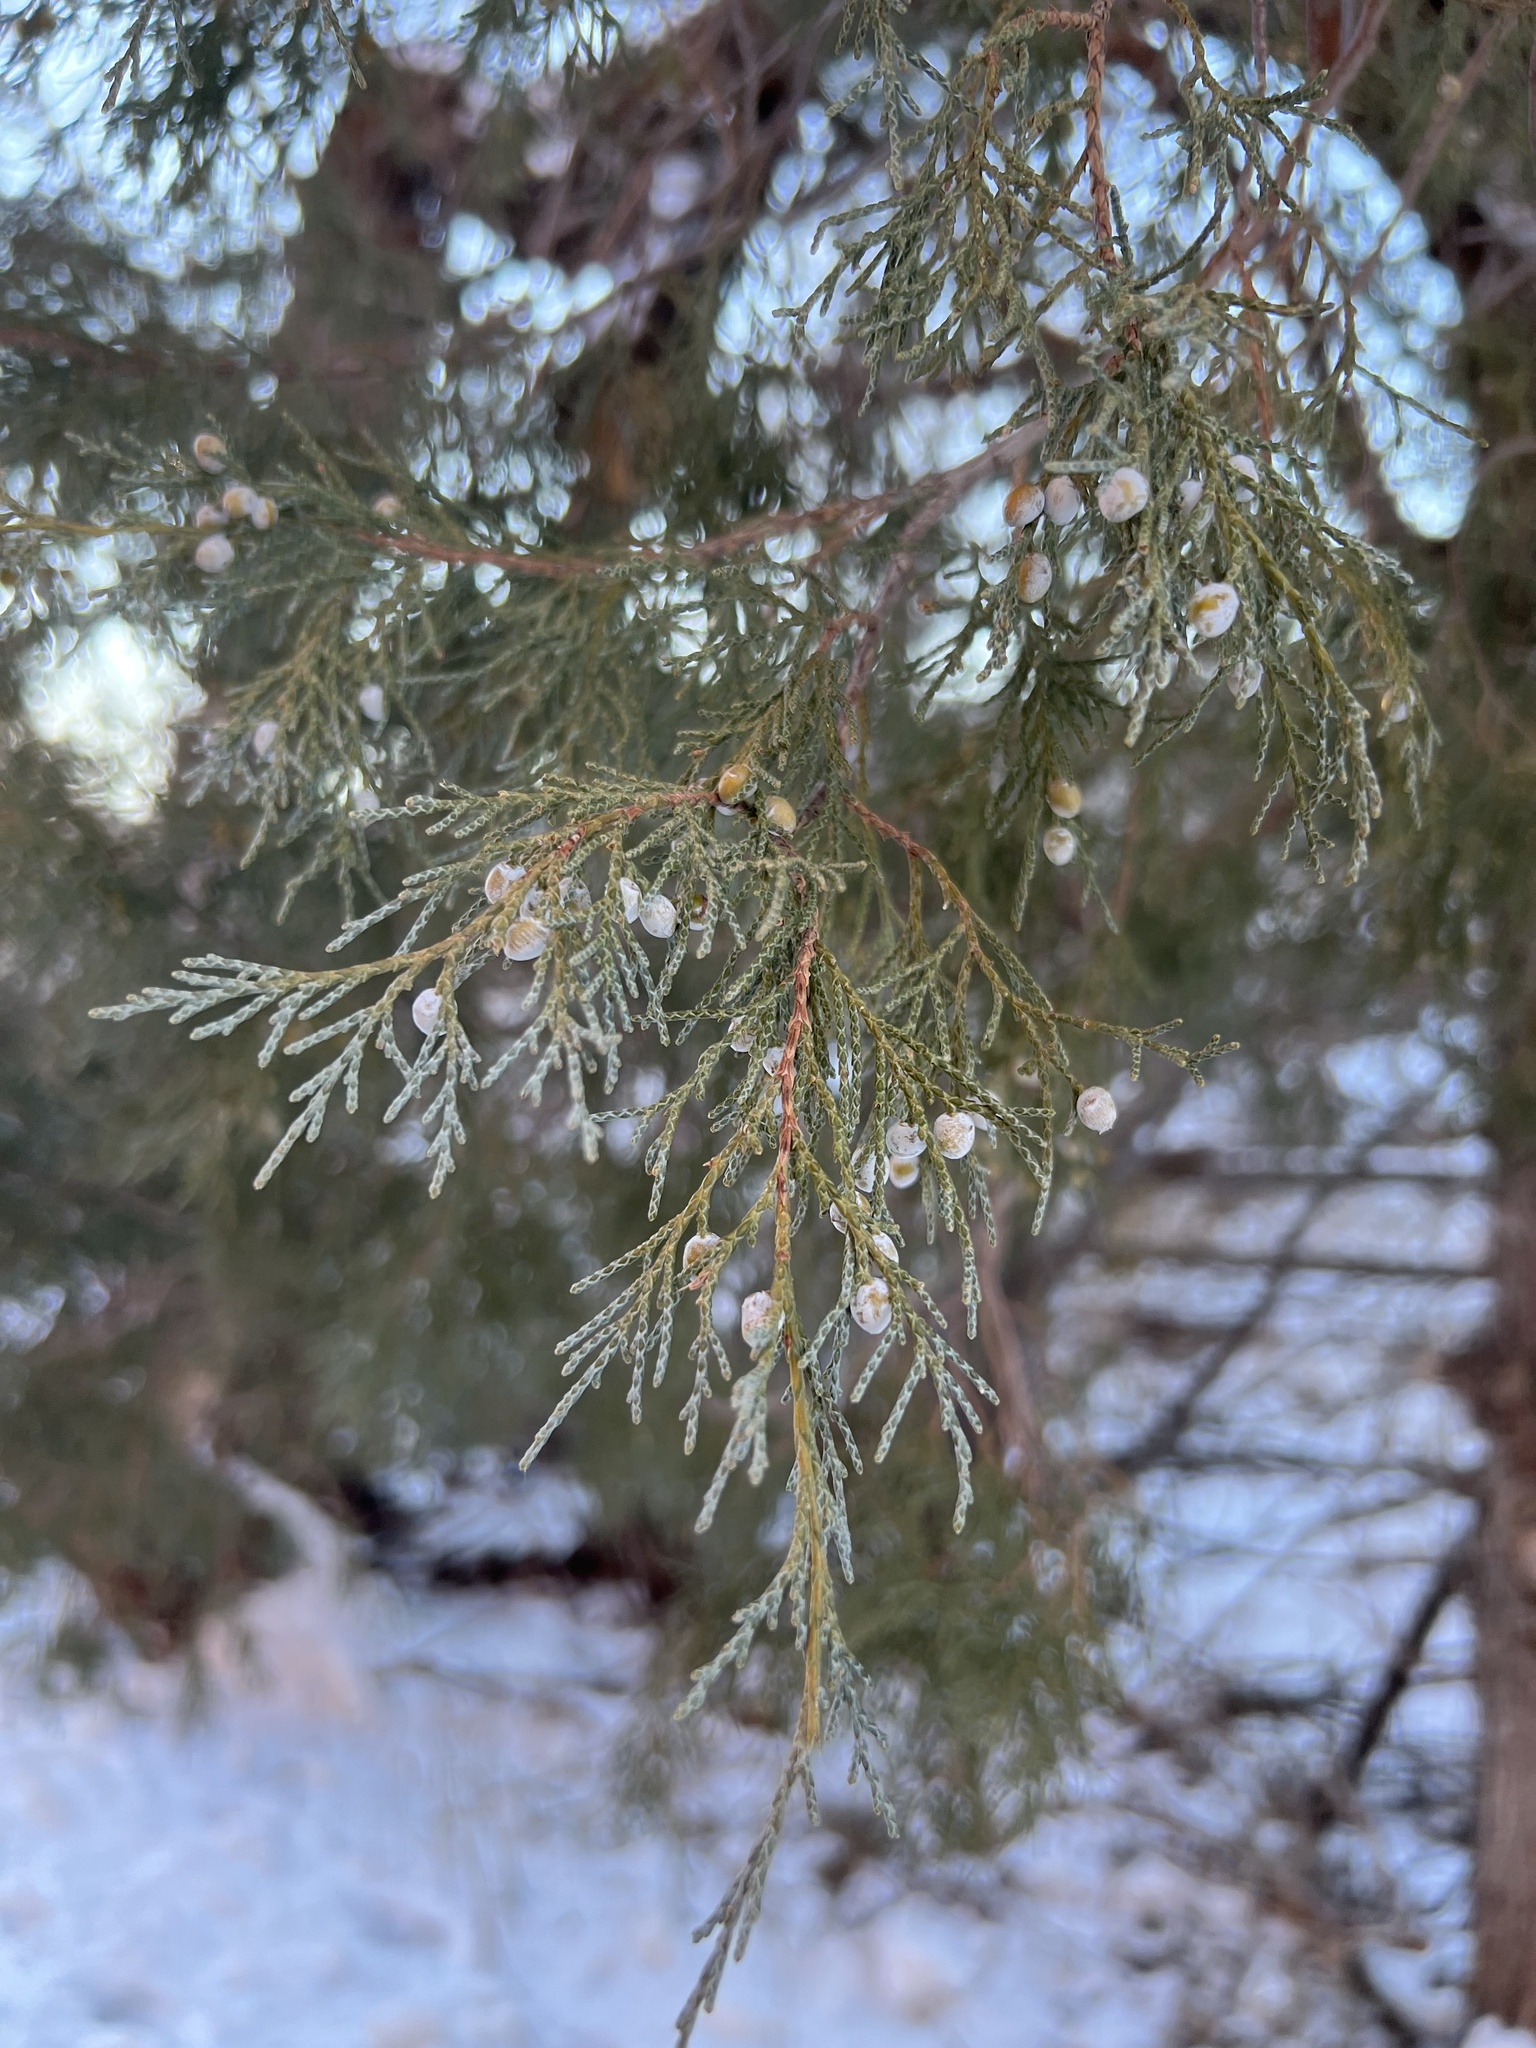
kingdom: Plantae
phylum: Tracheophyta
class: Pinopsida
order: Pinales
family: Cupressaceae
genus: Juniperus
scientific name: Juniperus scopulorum
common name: Rocky mountain juniper
